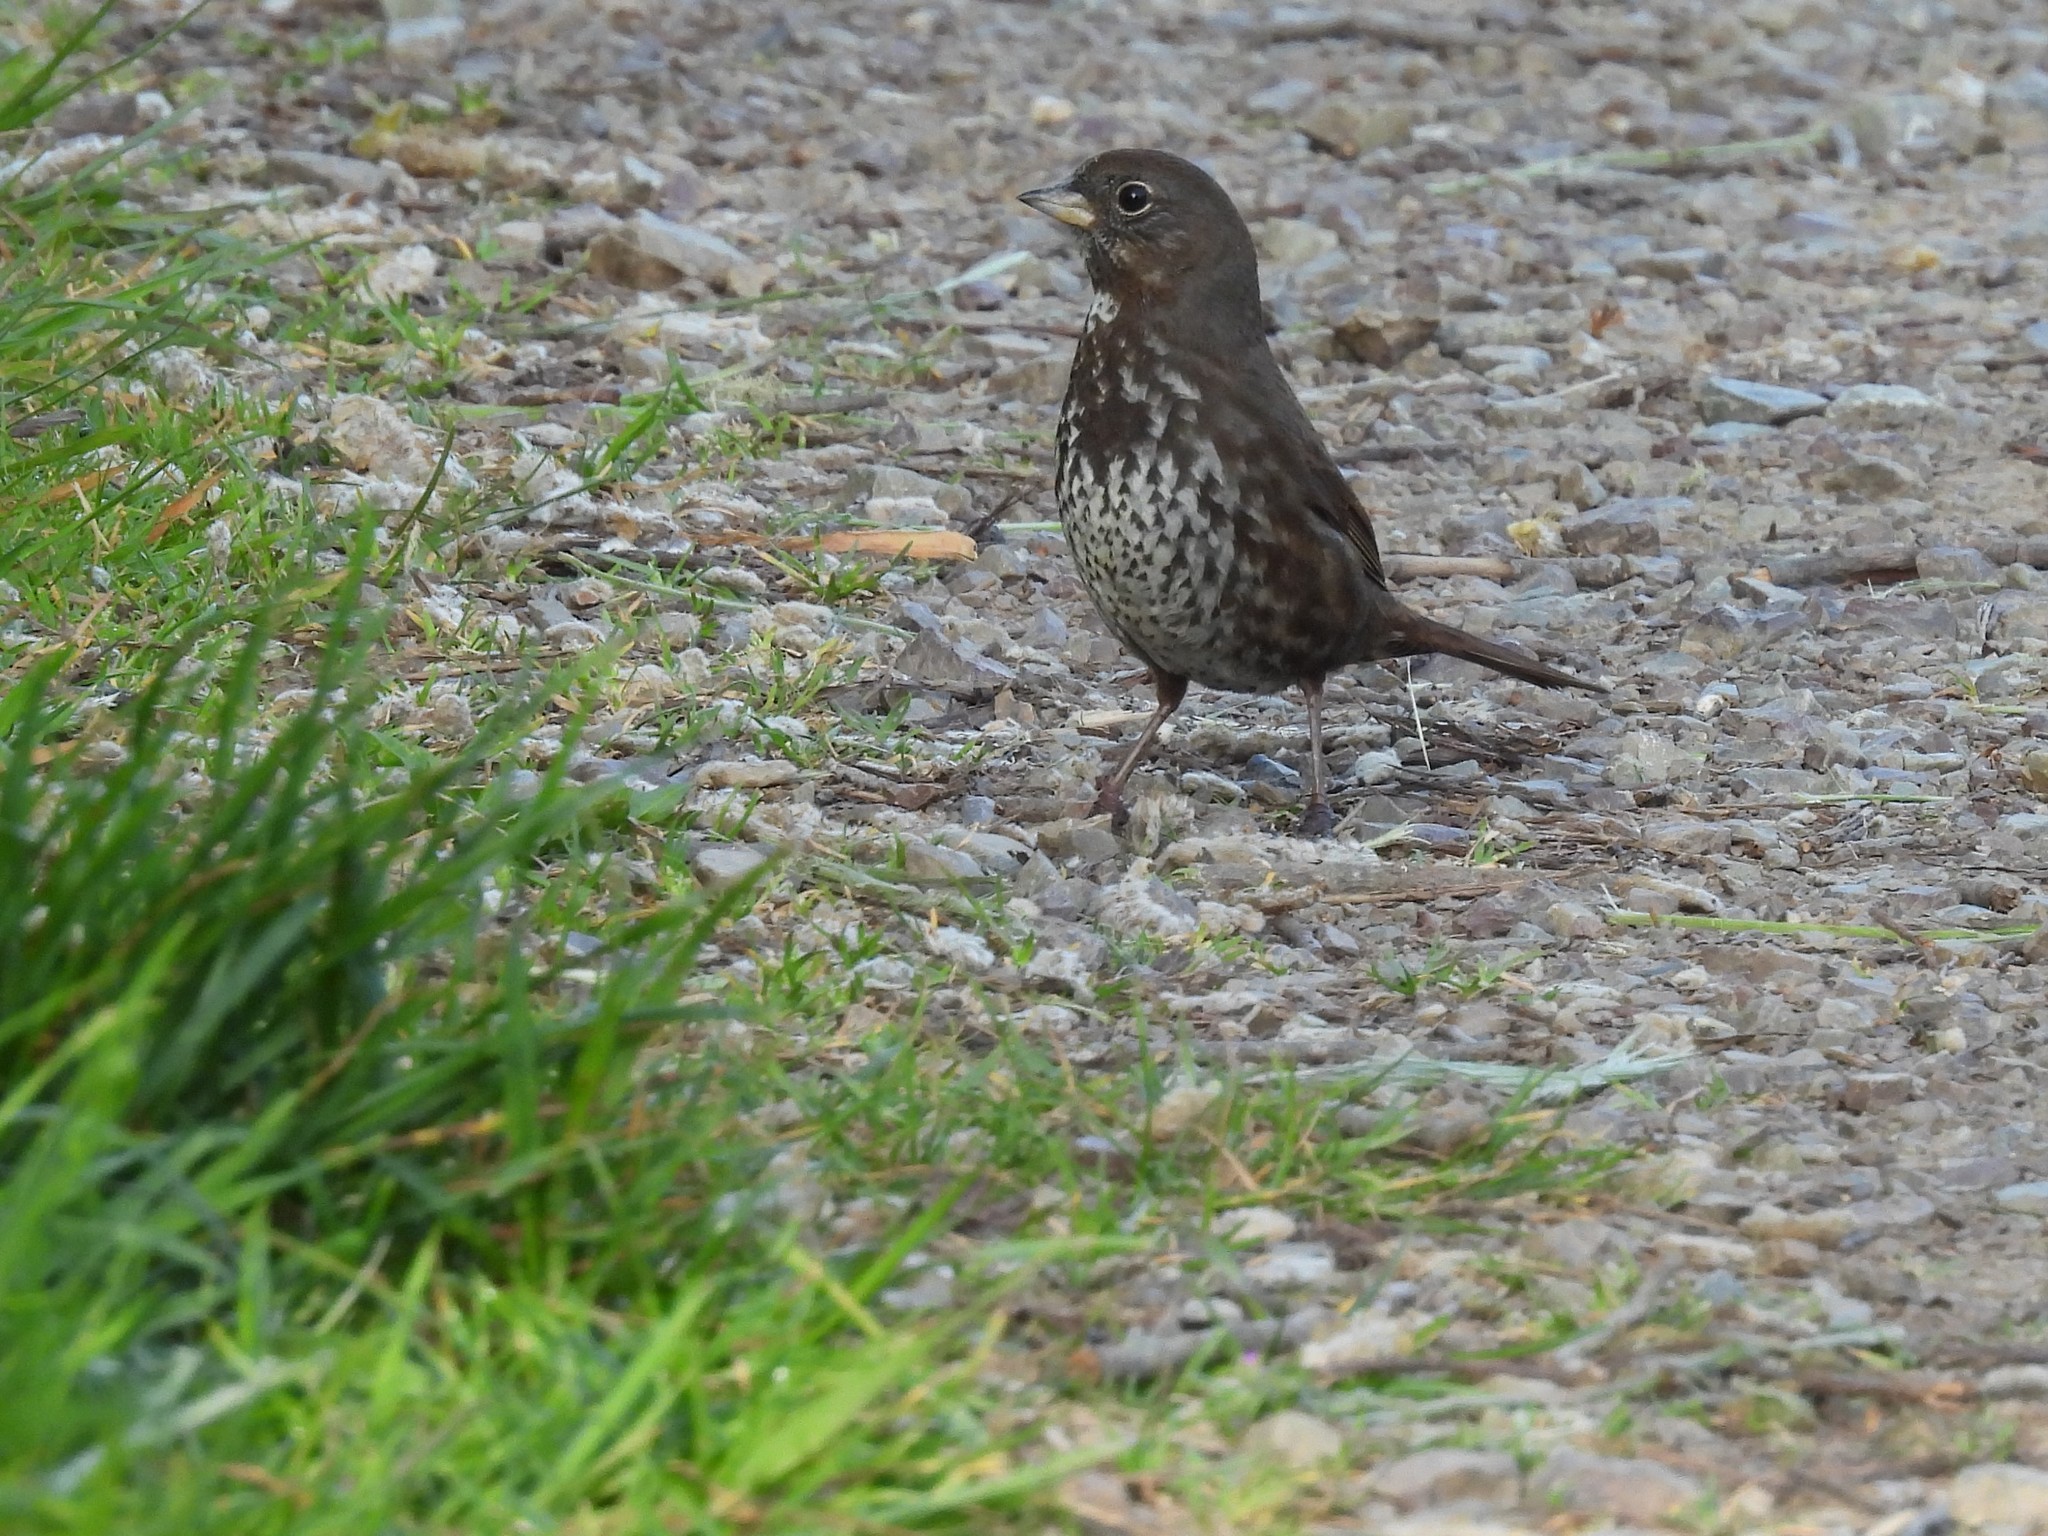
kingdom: Animalia
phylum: Chordata
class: Aves
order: Passeriformes
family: Passerellidae
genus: Passerella
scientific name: Passerella iliaca
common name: Fox sparrow
